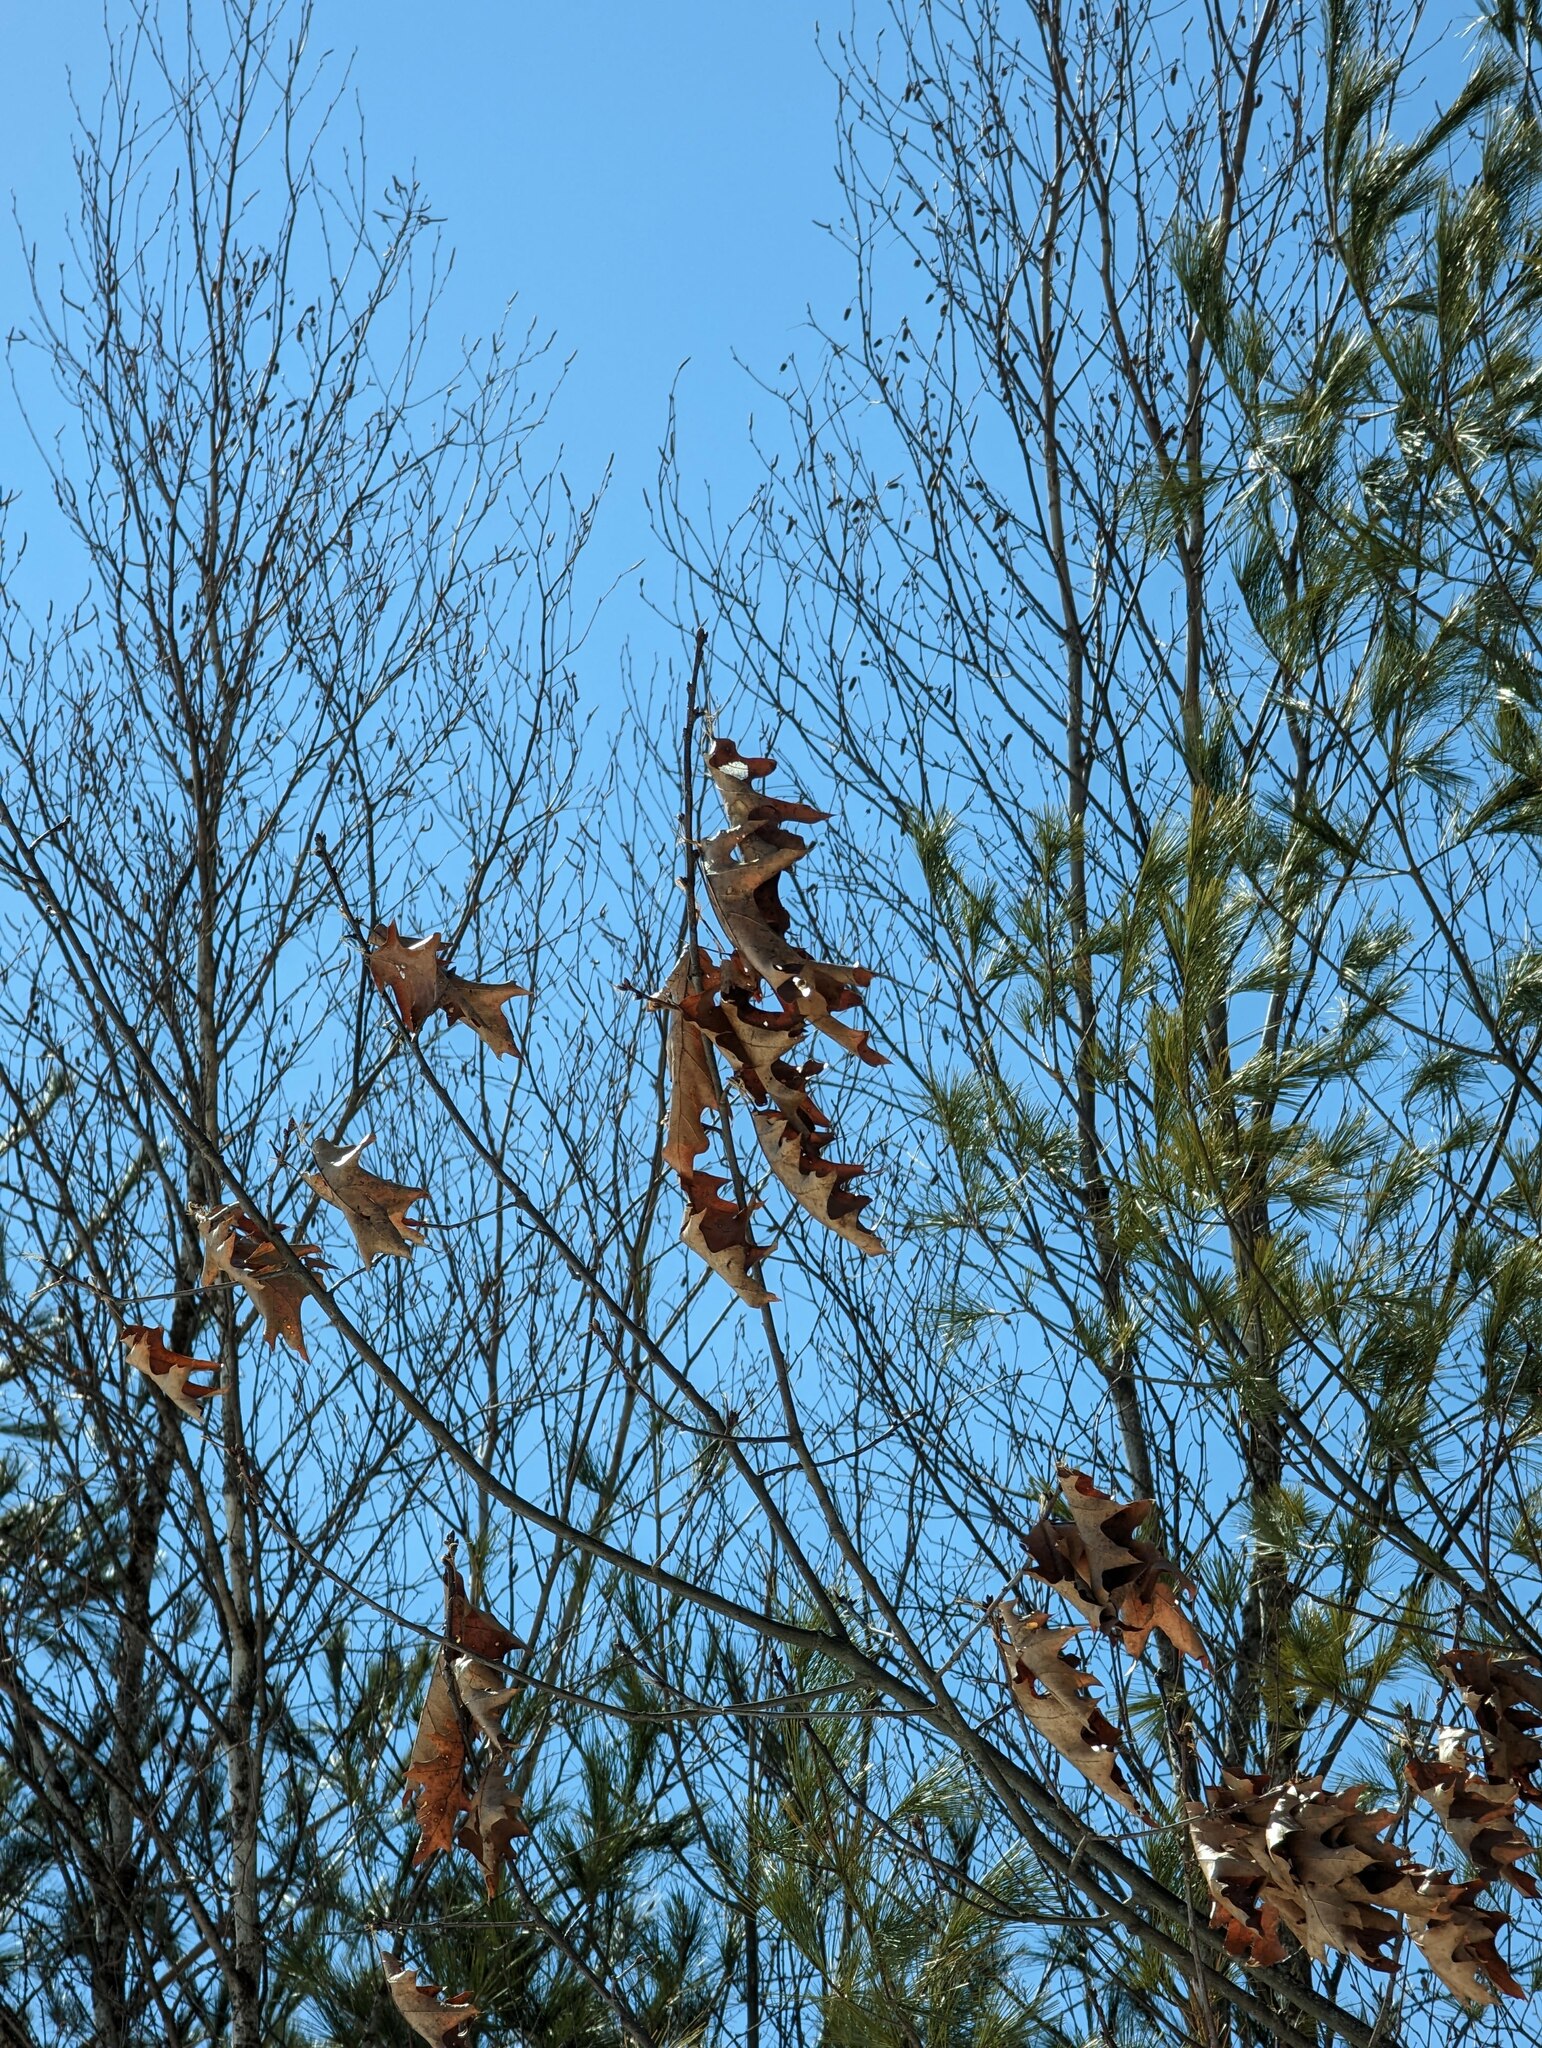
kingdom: Plantae
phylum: Tracheophyta
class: Magnoliopsida
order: Fagales
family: Fagaceae
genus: Quercus
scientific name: Quercus rubra
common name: Red oak
